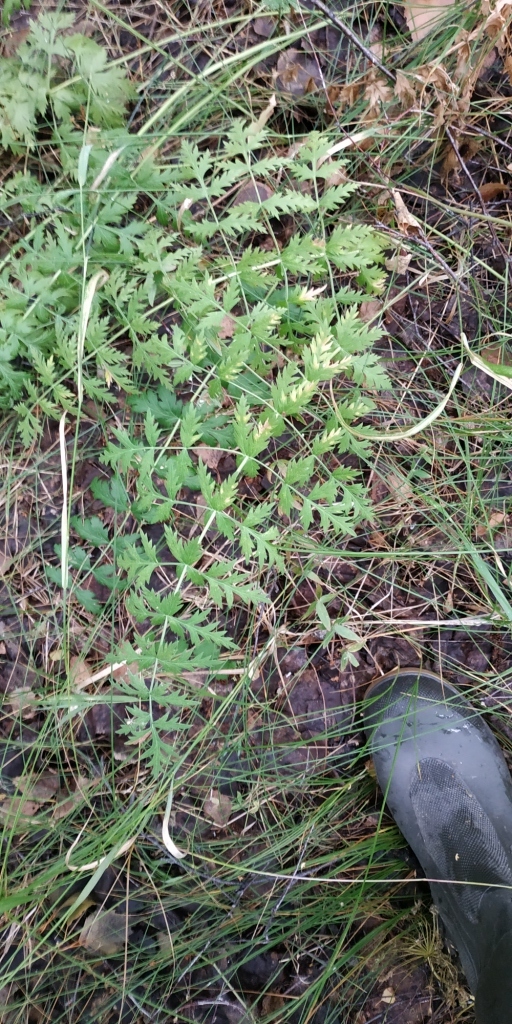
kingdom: Plantae
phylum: Tracheophyta
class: Magnoliopsida
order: Apiales
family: Apiaceae
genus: Seseli
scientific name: Seseli libanotis
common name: Mooncarrot
